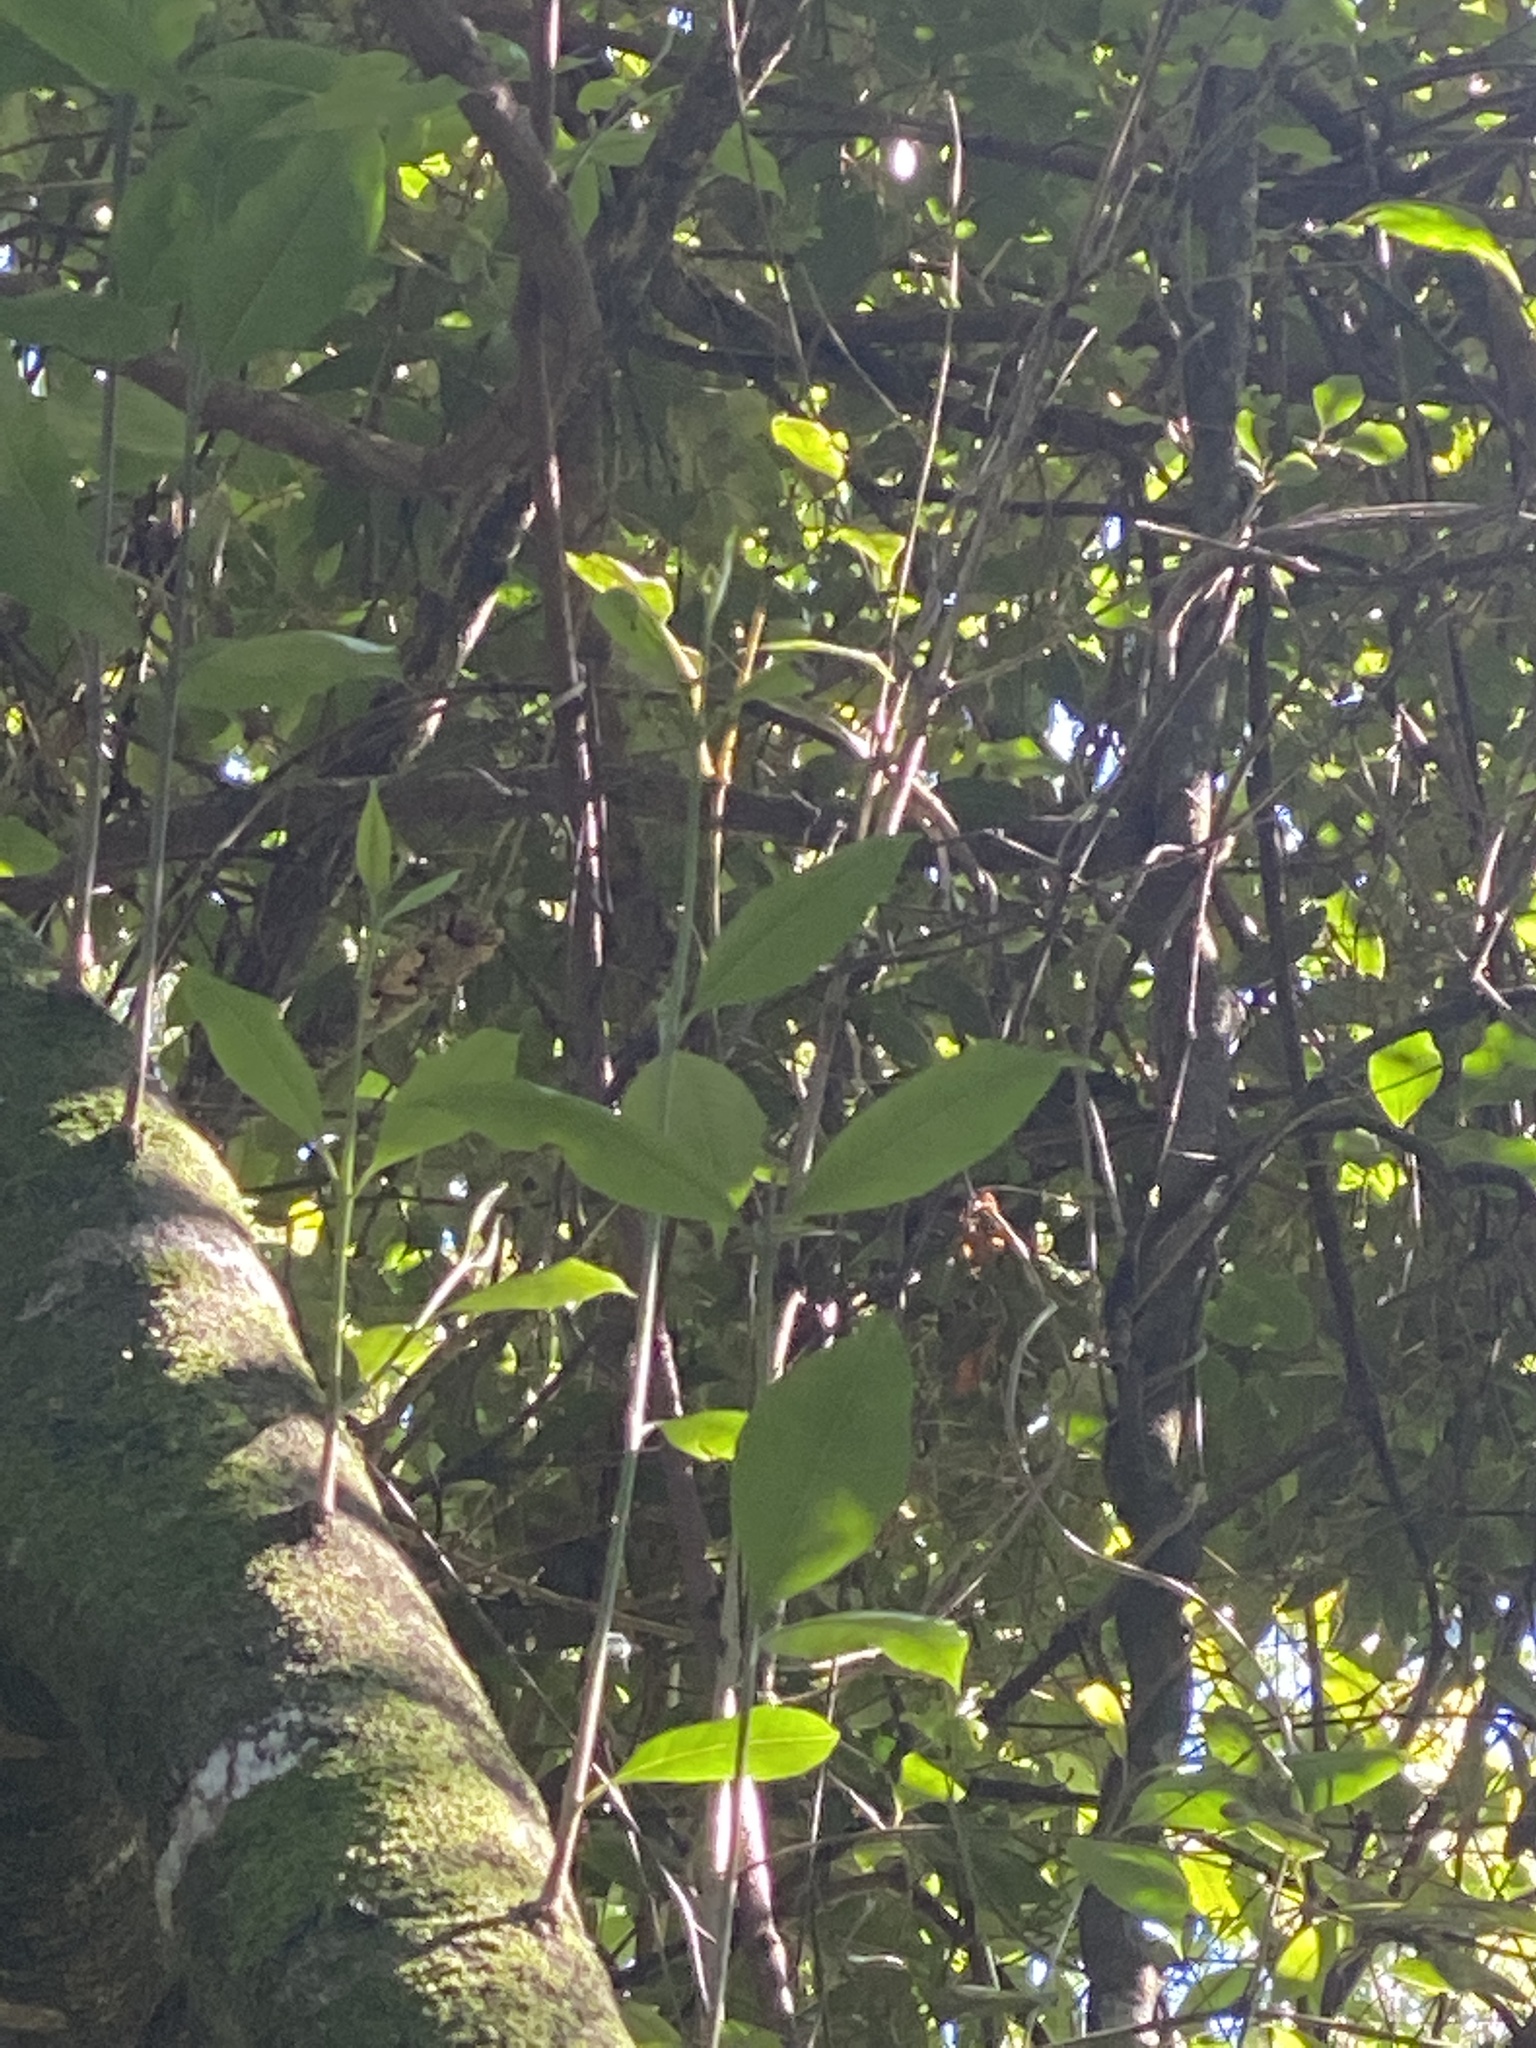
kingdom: Plantae
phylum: Tracheophyta
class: Magnoliopsida
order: Lamiales
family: Oleaceae
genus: Olea
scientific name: Olea paniculata
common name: Australian olive
